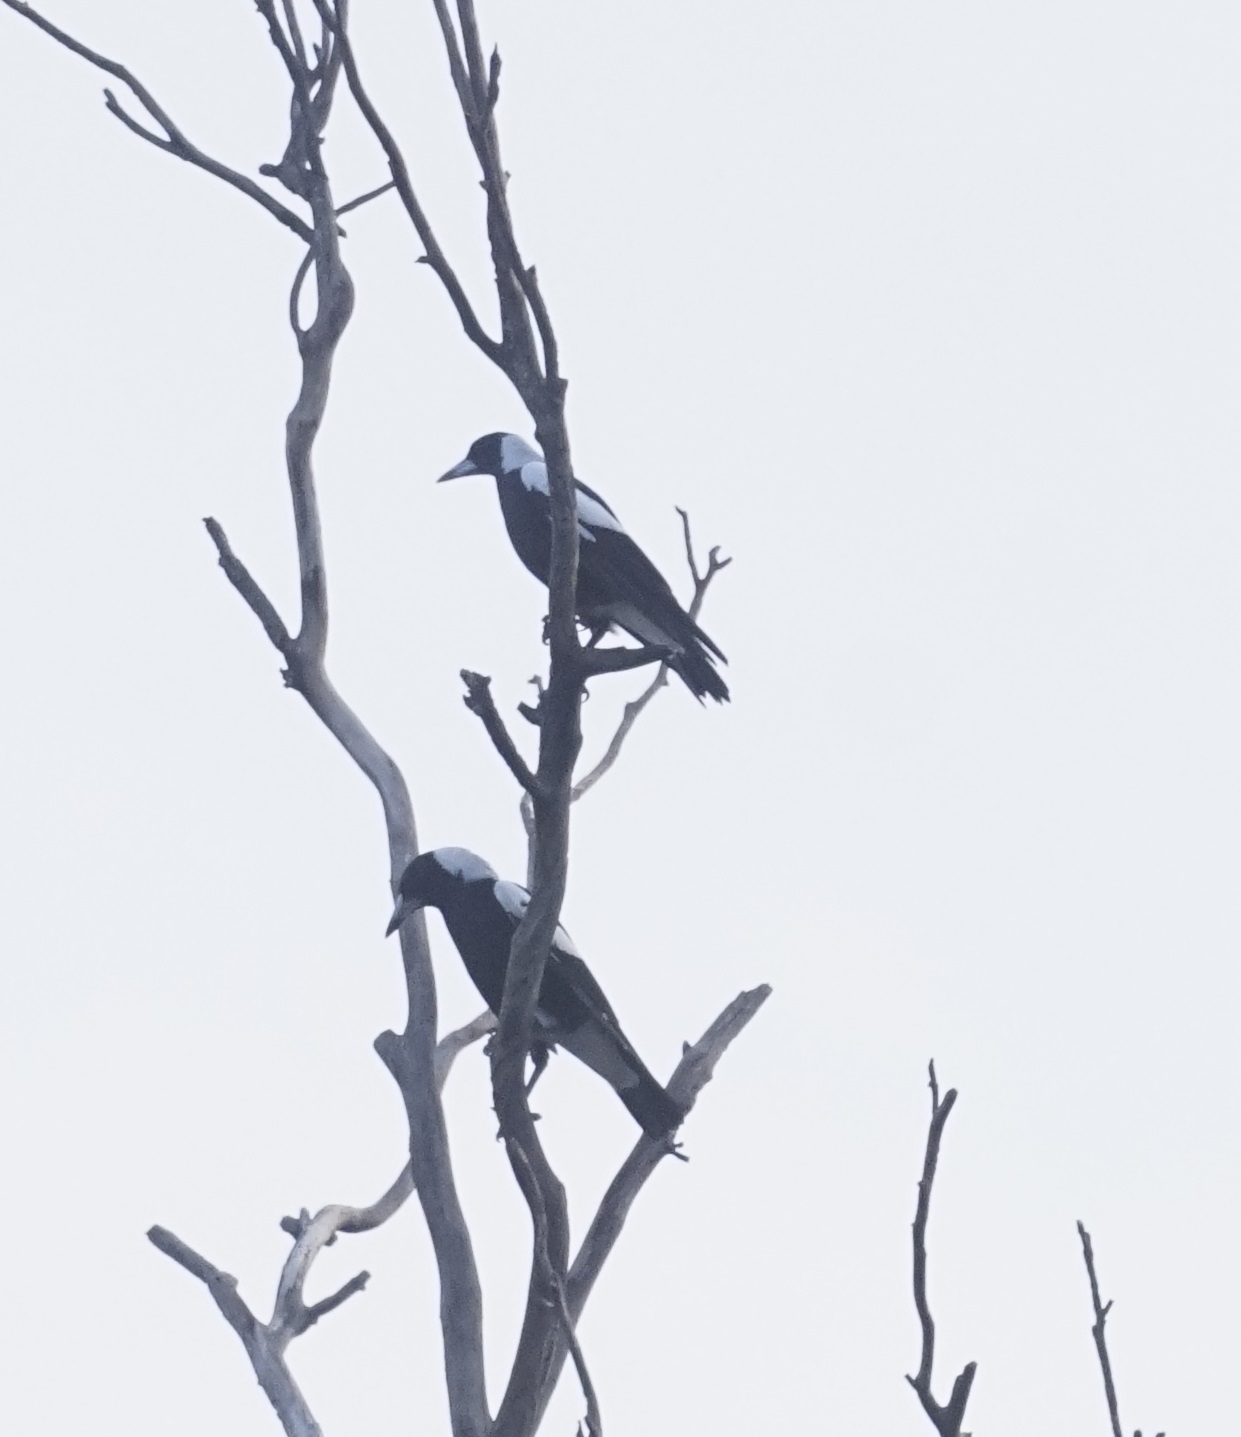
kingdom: Animalia
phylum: Chordata
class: Aves
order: Passeriformes
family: Cracticidae
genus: Gymnorhina
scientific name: Gymnorhina tibicen
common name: Australian magpie
